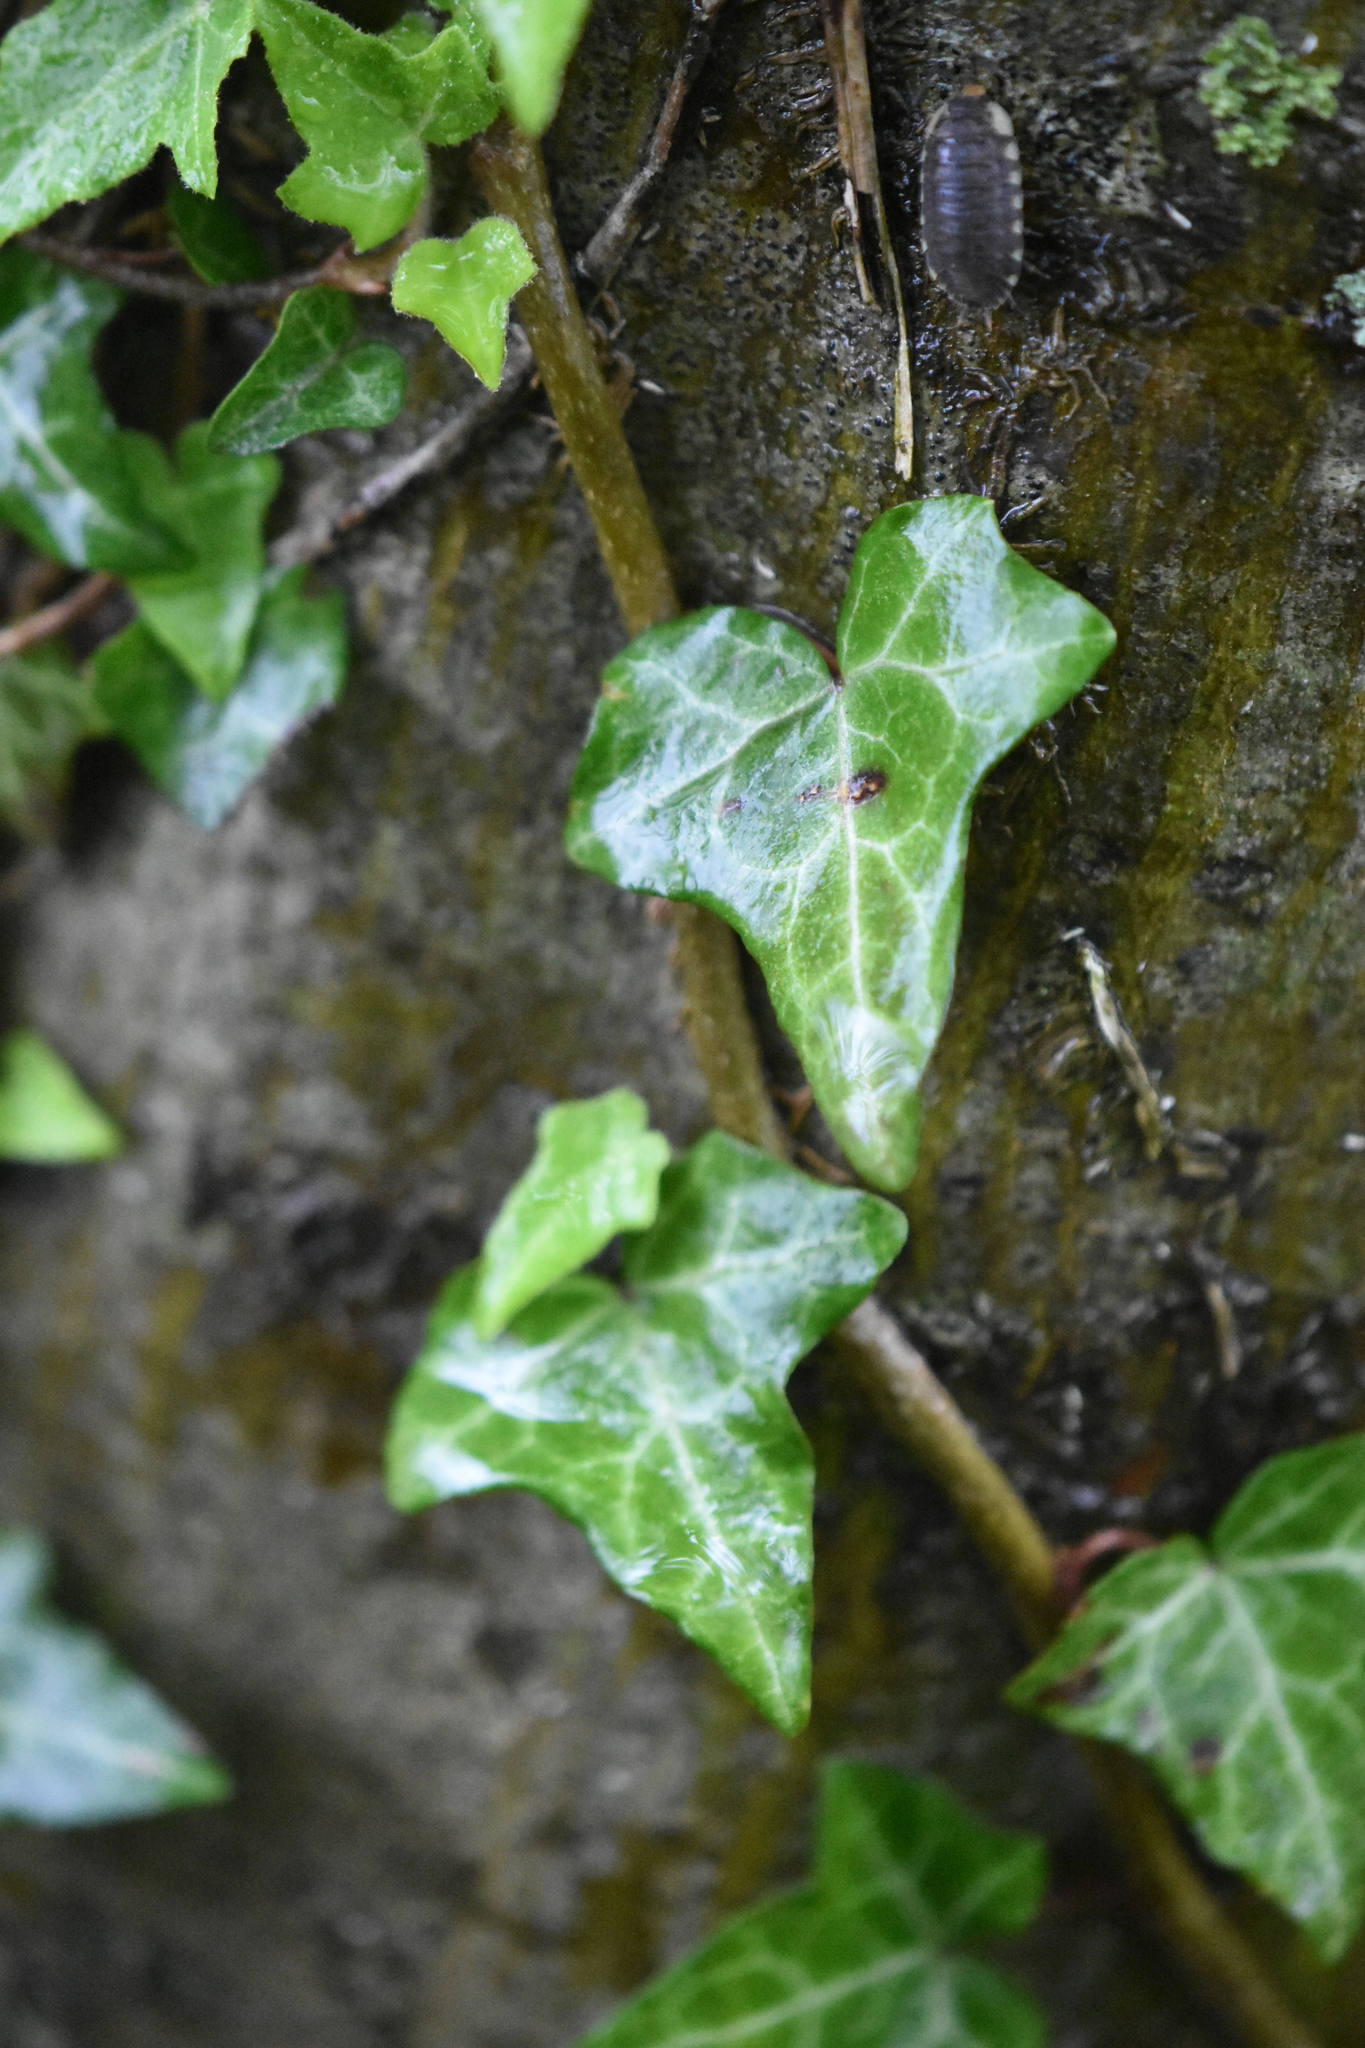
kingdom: Plantae
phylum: Tracheophyta
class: Magnoliopsida
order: Apiales
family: Araliaceae
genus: Hedera
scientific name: Hedera helix
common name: Ivy
